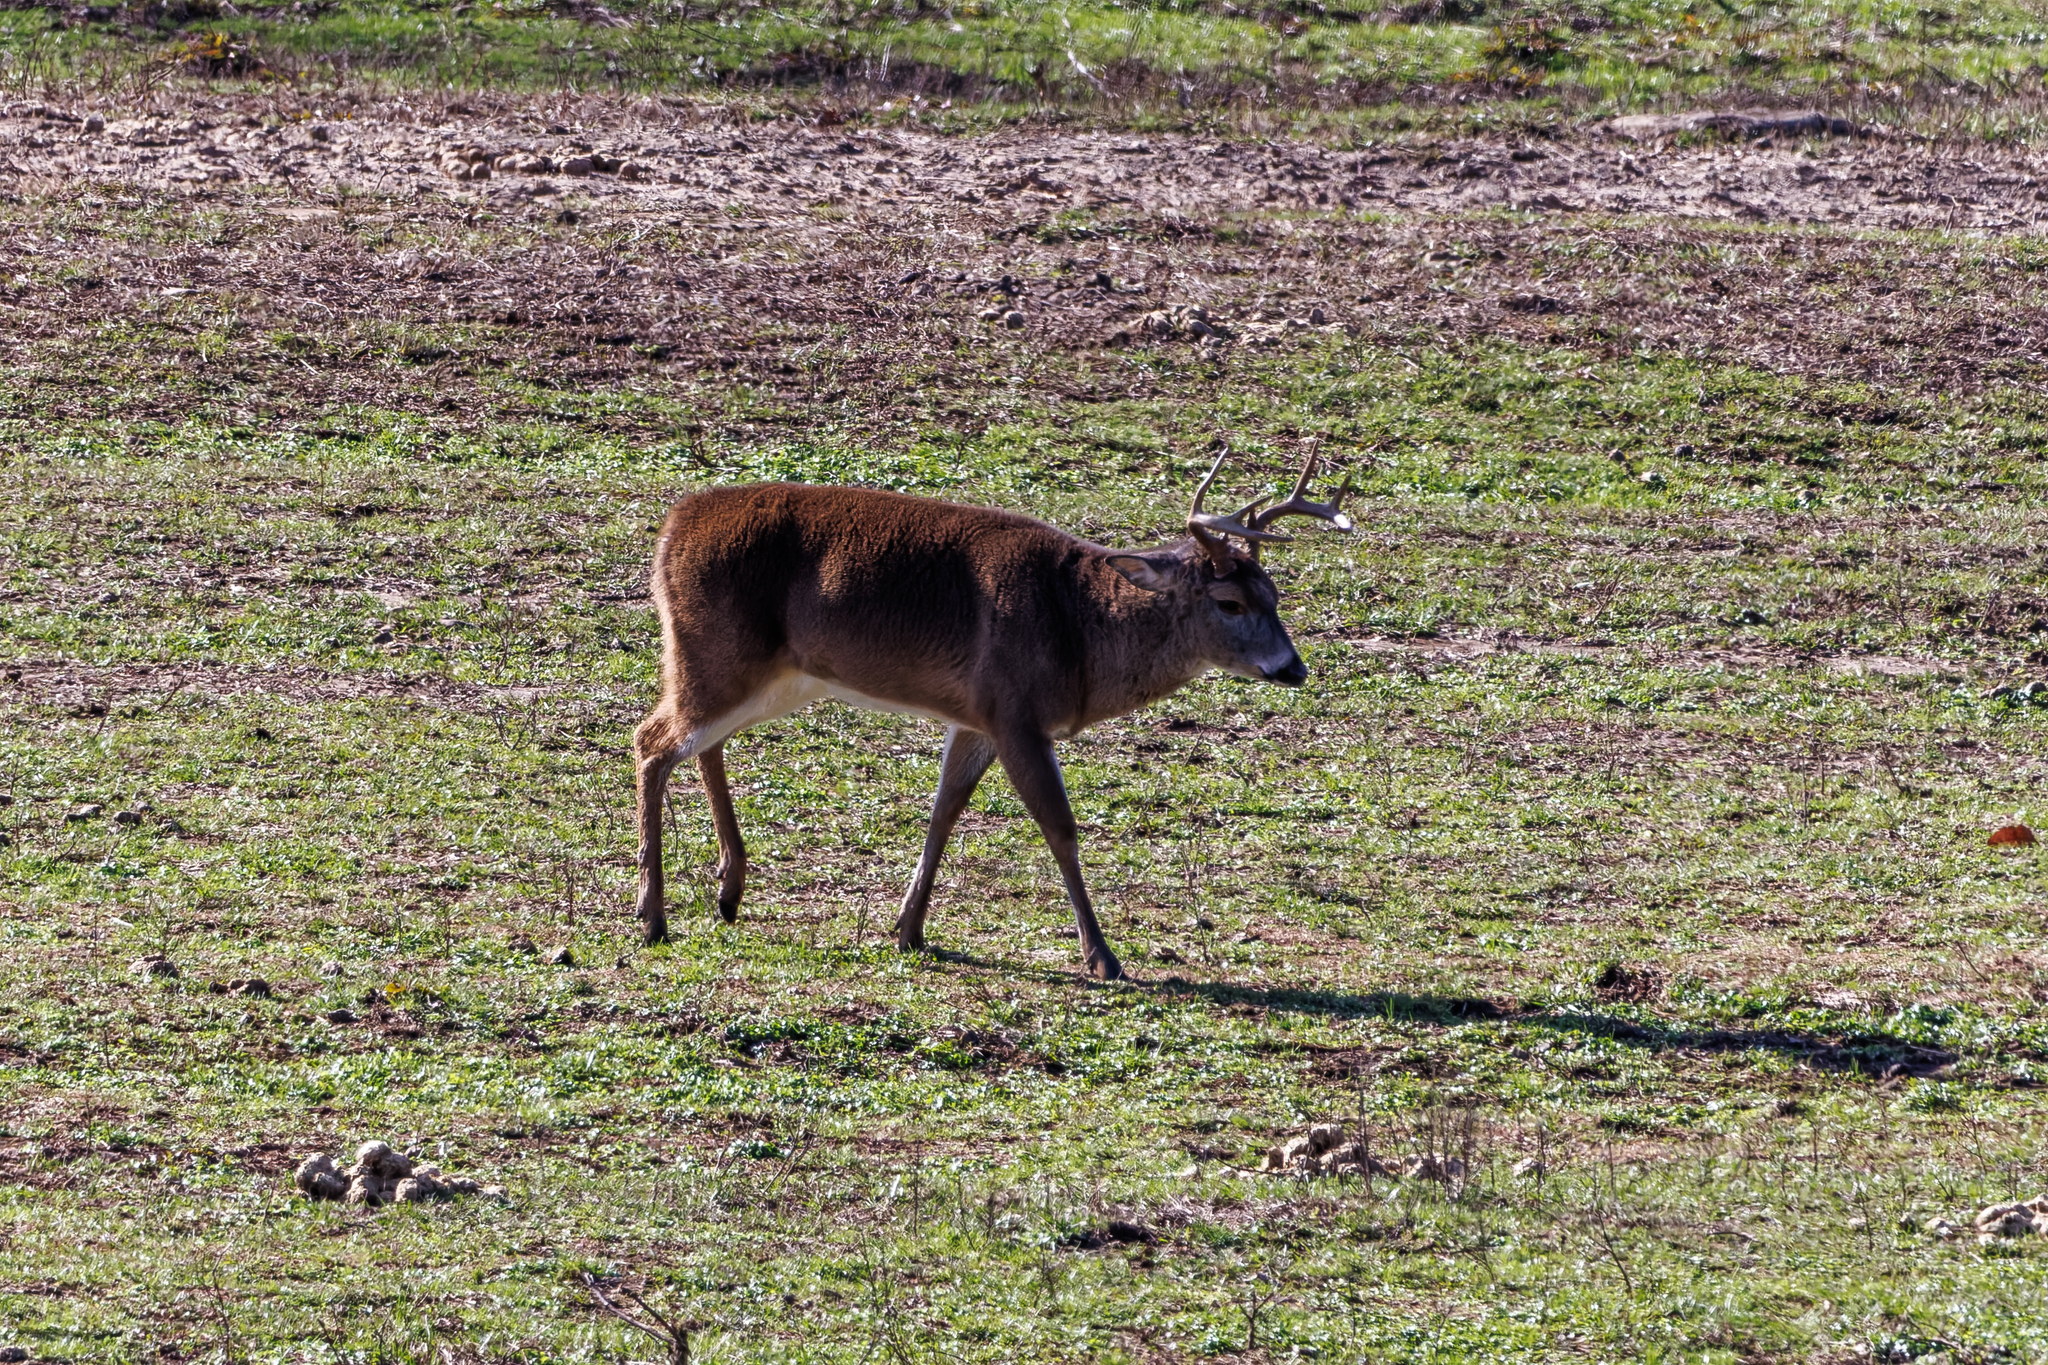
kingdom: Animalia
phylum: Chordata
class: Mammalia
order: Artiodactyla
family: Cervidae
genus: Odocoileus
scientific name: Odocoileus virginianus
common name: White-tailed deer
